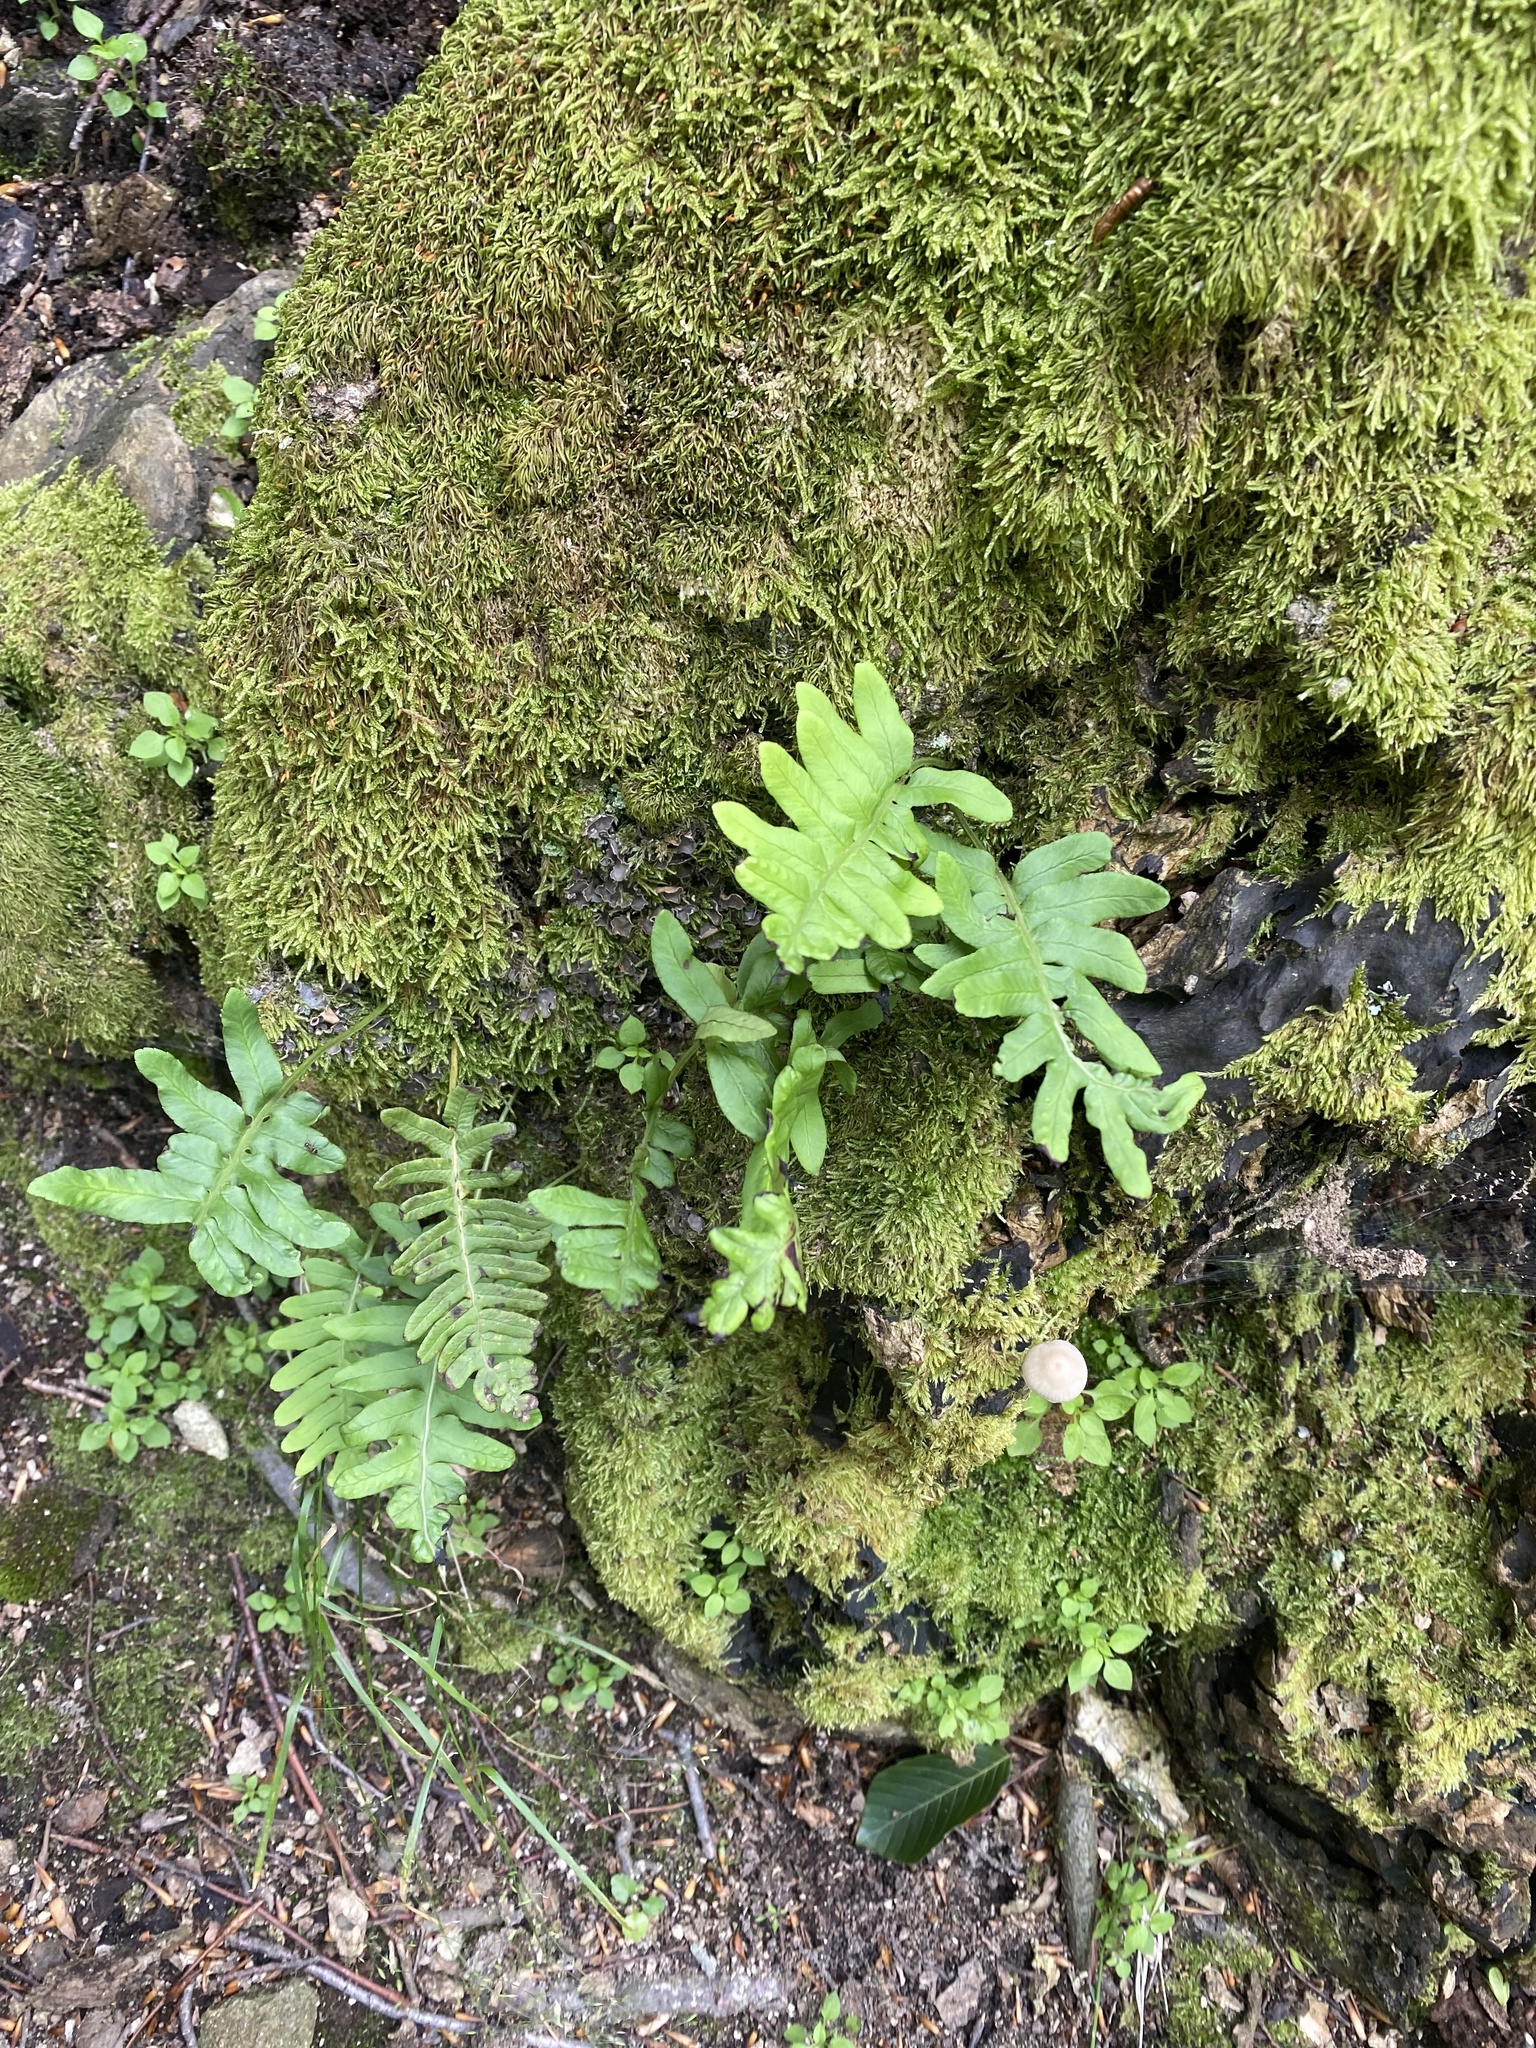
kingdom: Plantae
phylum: Tracheophyta
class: Polypodiopsida
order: Polypodiales
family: Polypodiaceae
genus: Polypodium
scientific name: Polypodium vulgare
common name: Common polypody
